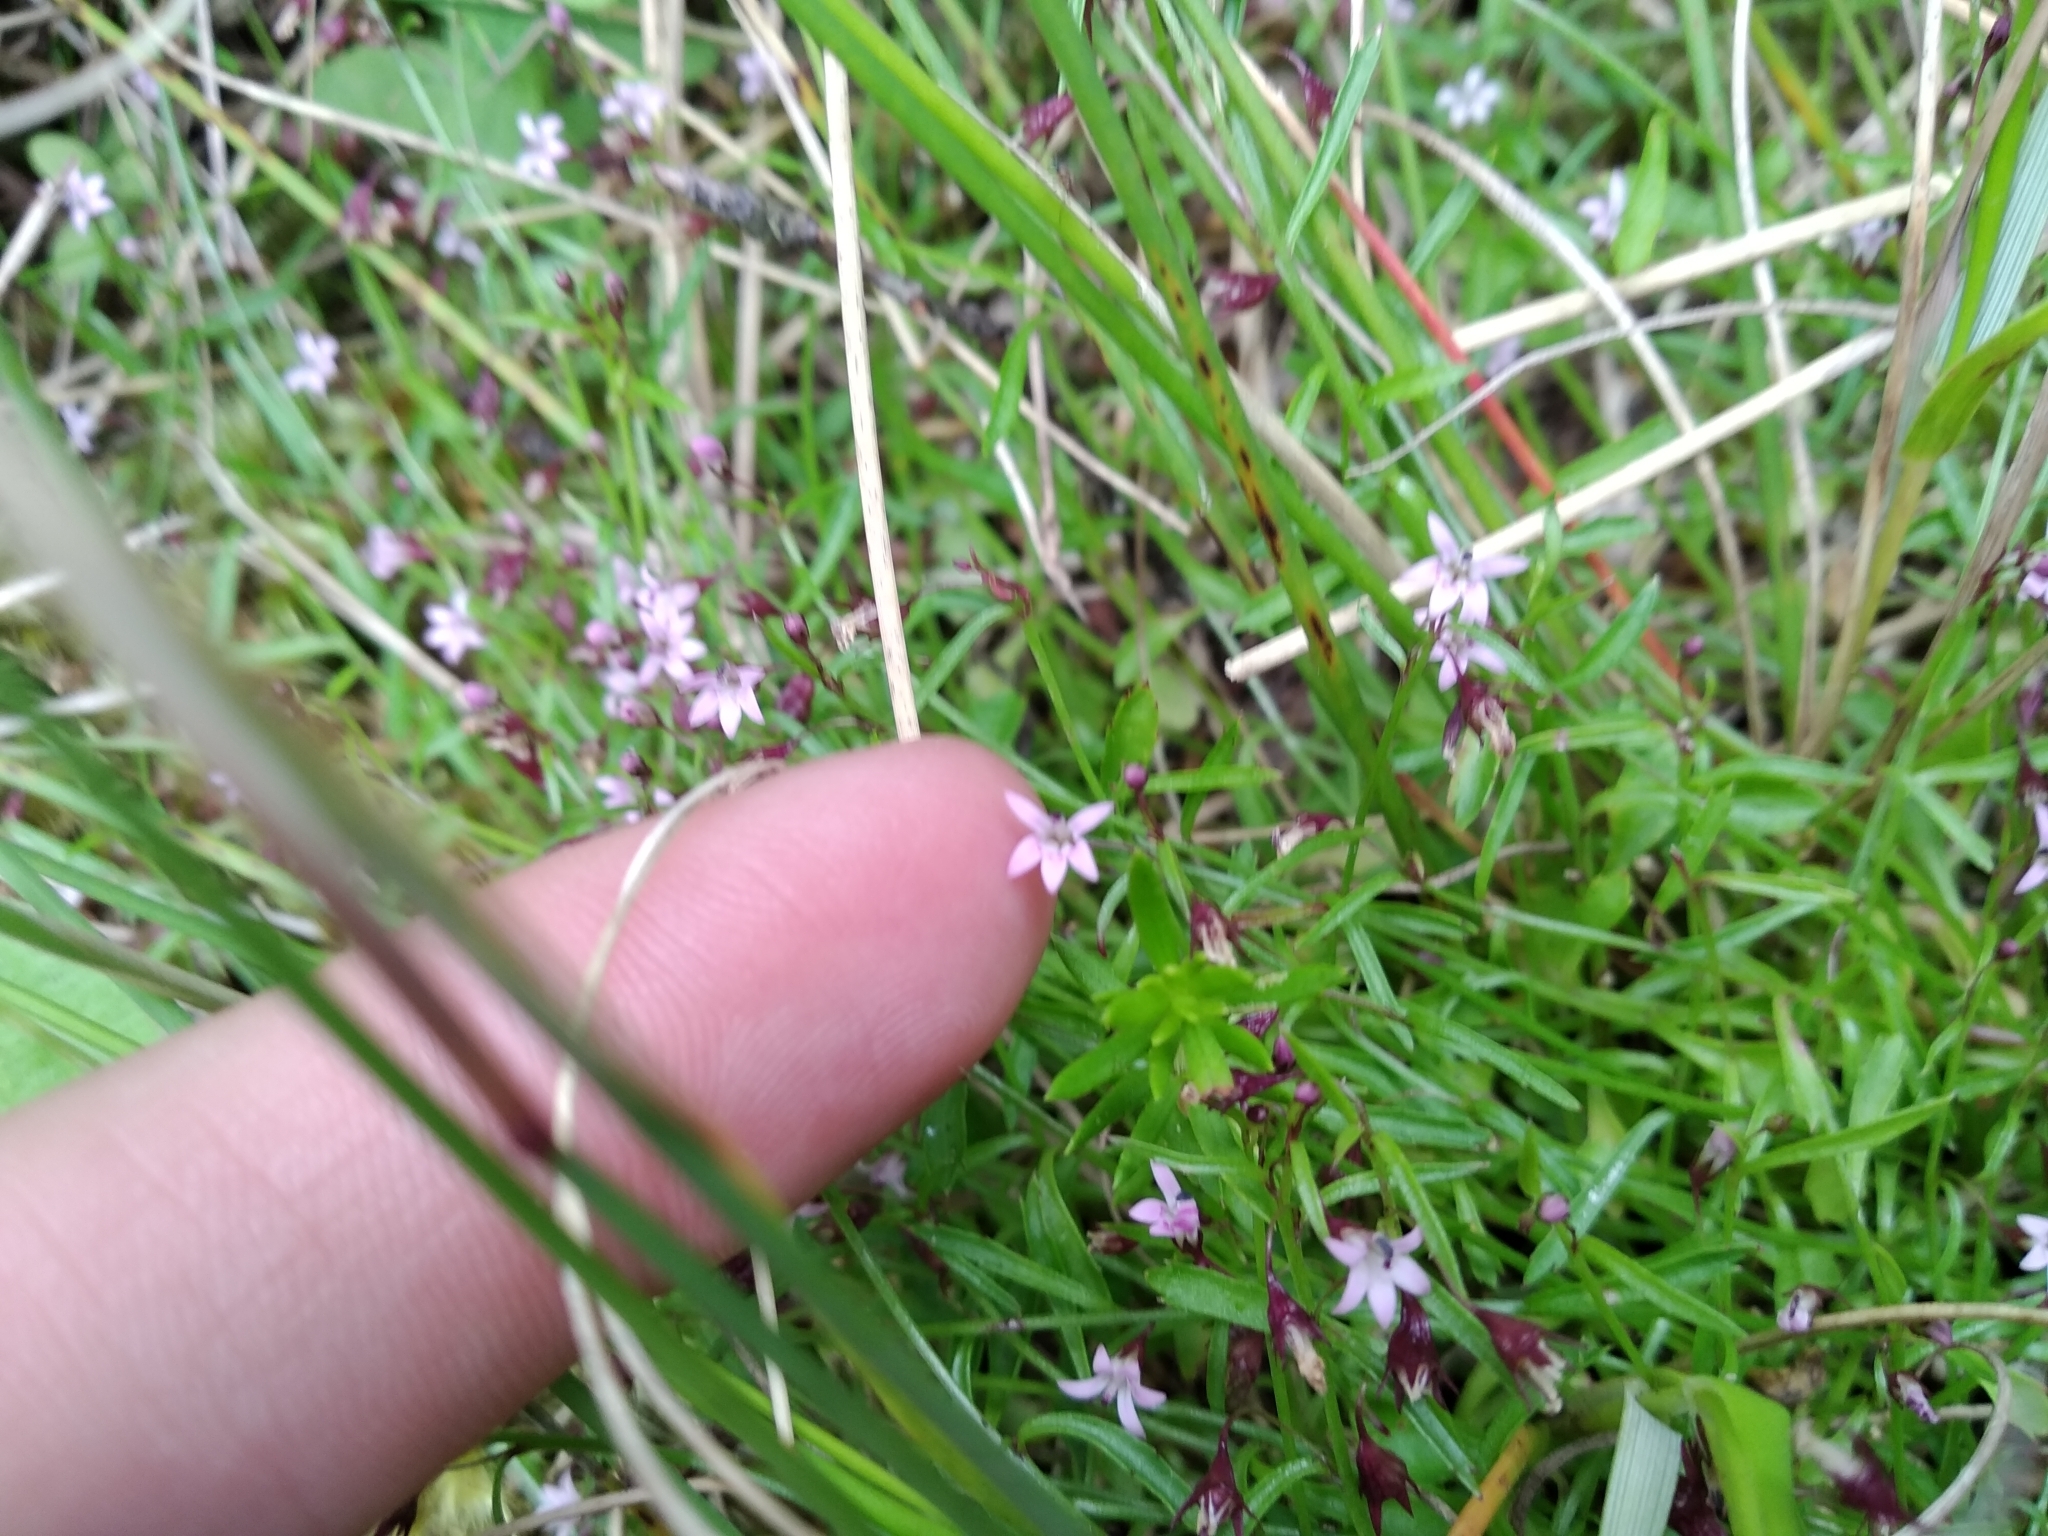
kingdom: Plantae
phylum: Tracheophyta
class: Magnoliopsida
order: Asterales
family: Campanulaceae
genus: Lobelia
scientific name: Lobelia eckloniana
